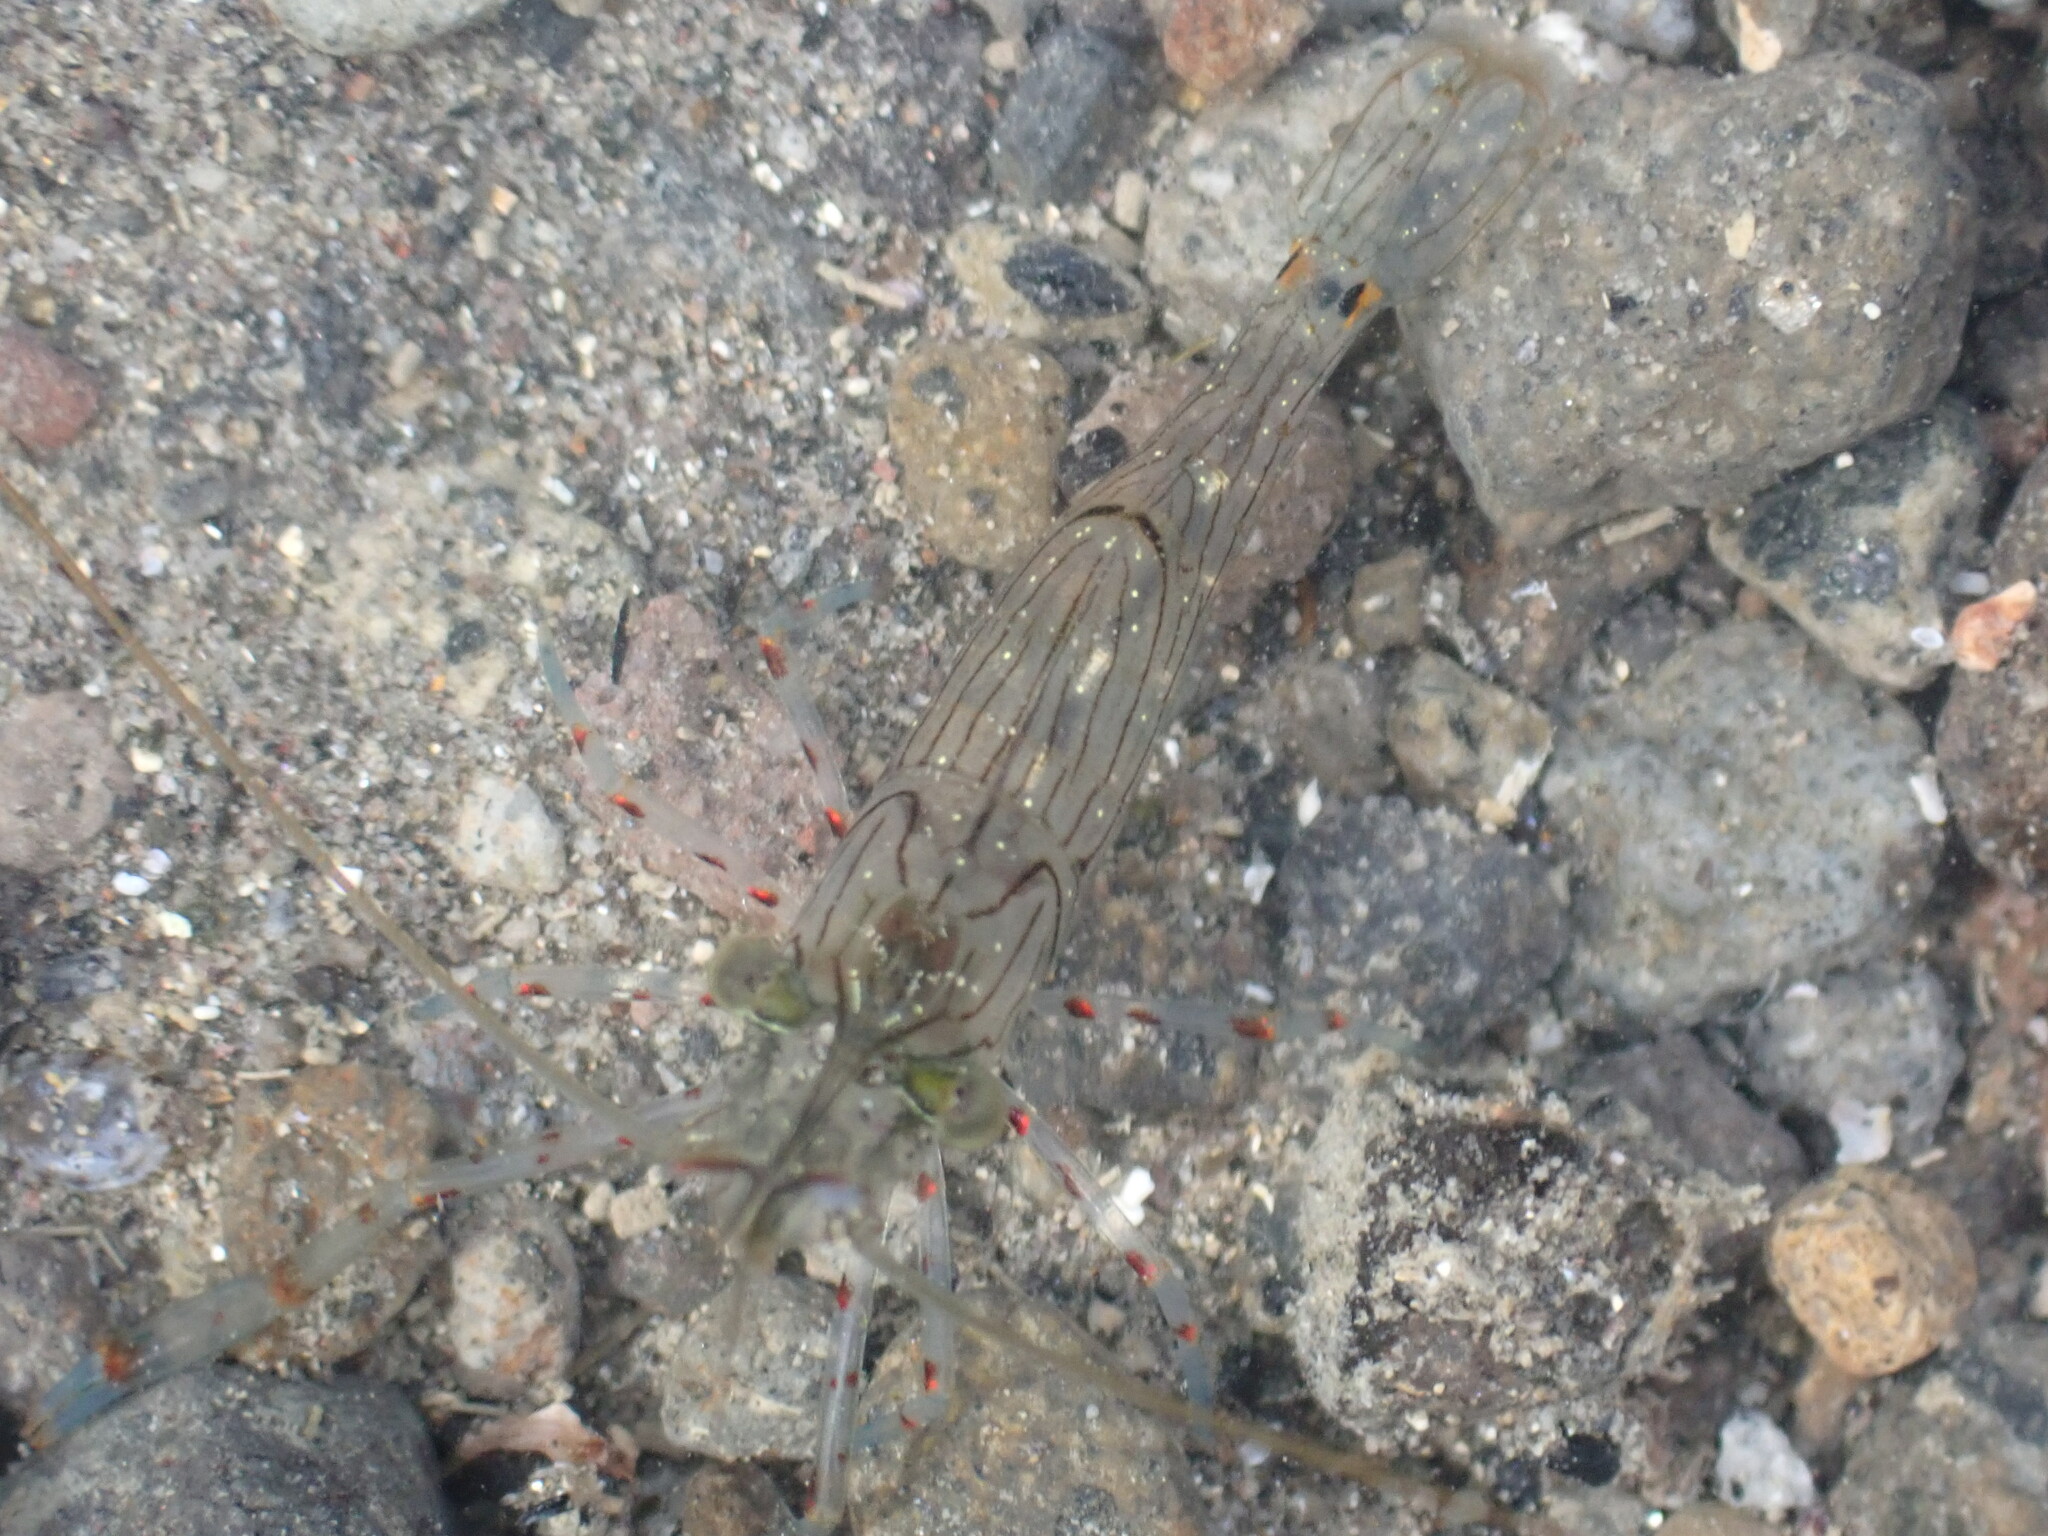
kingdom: Animalia
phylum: Arthropoda
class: Malacostraca
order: Decapoda
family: Palaemonidae
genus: Palaemon
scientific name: Palaemon affinis
